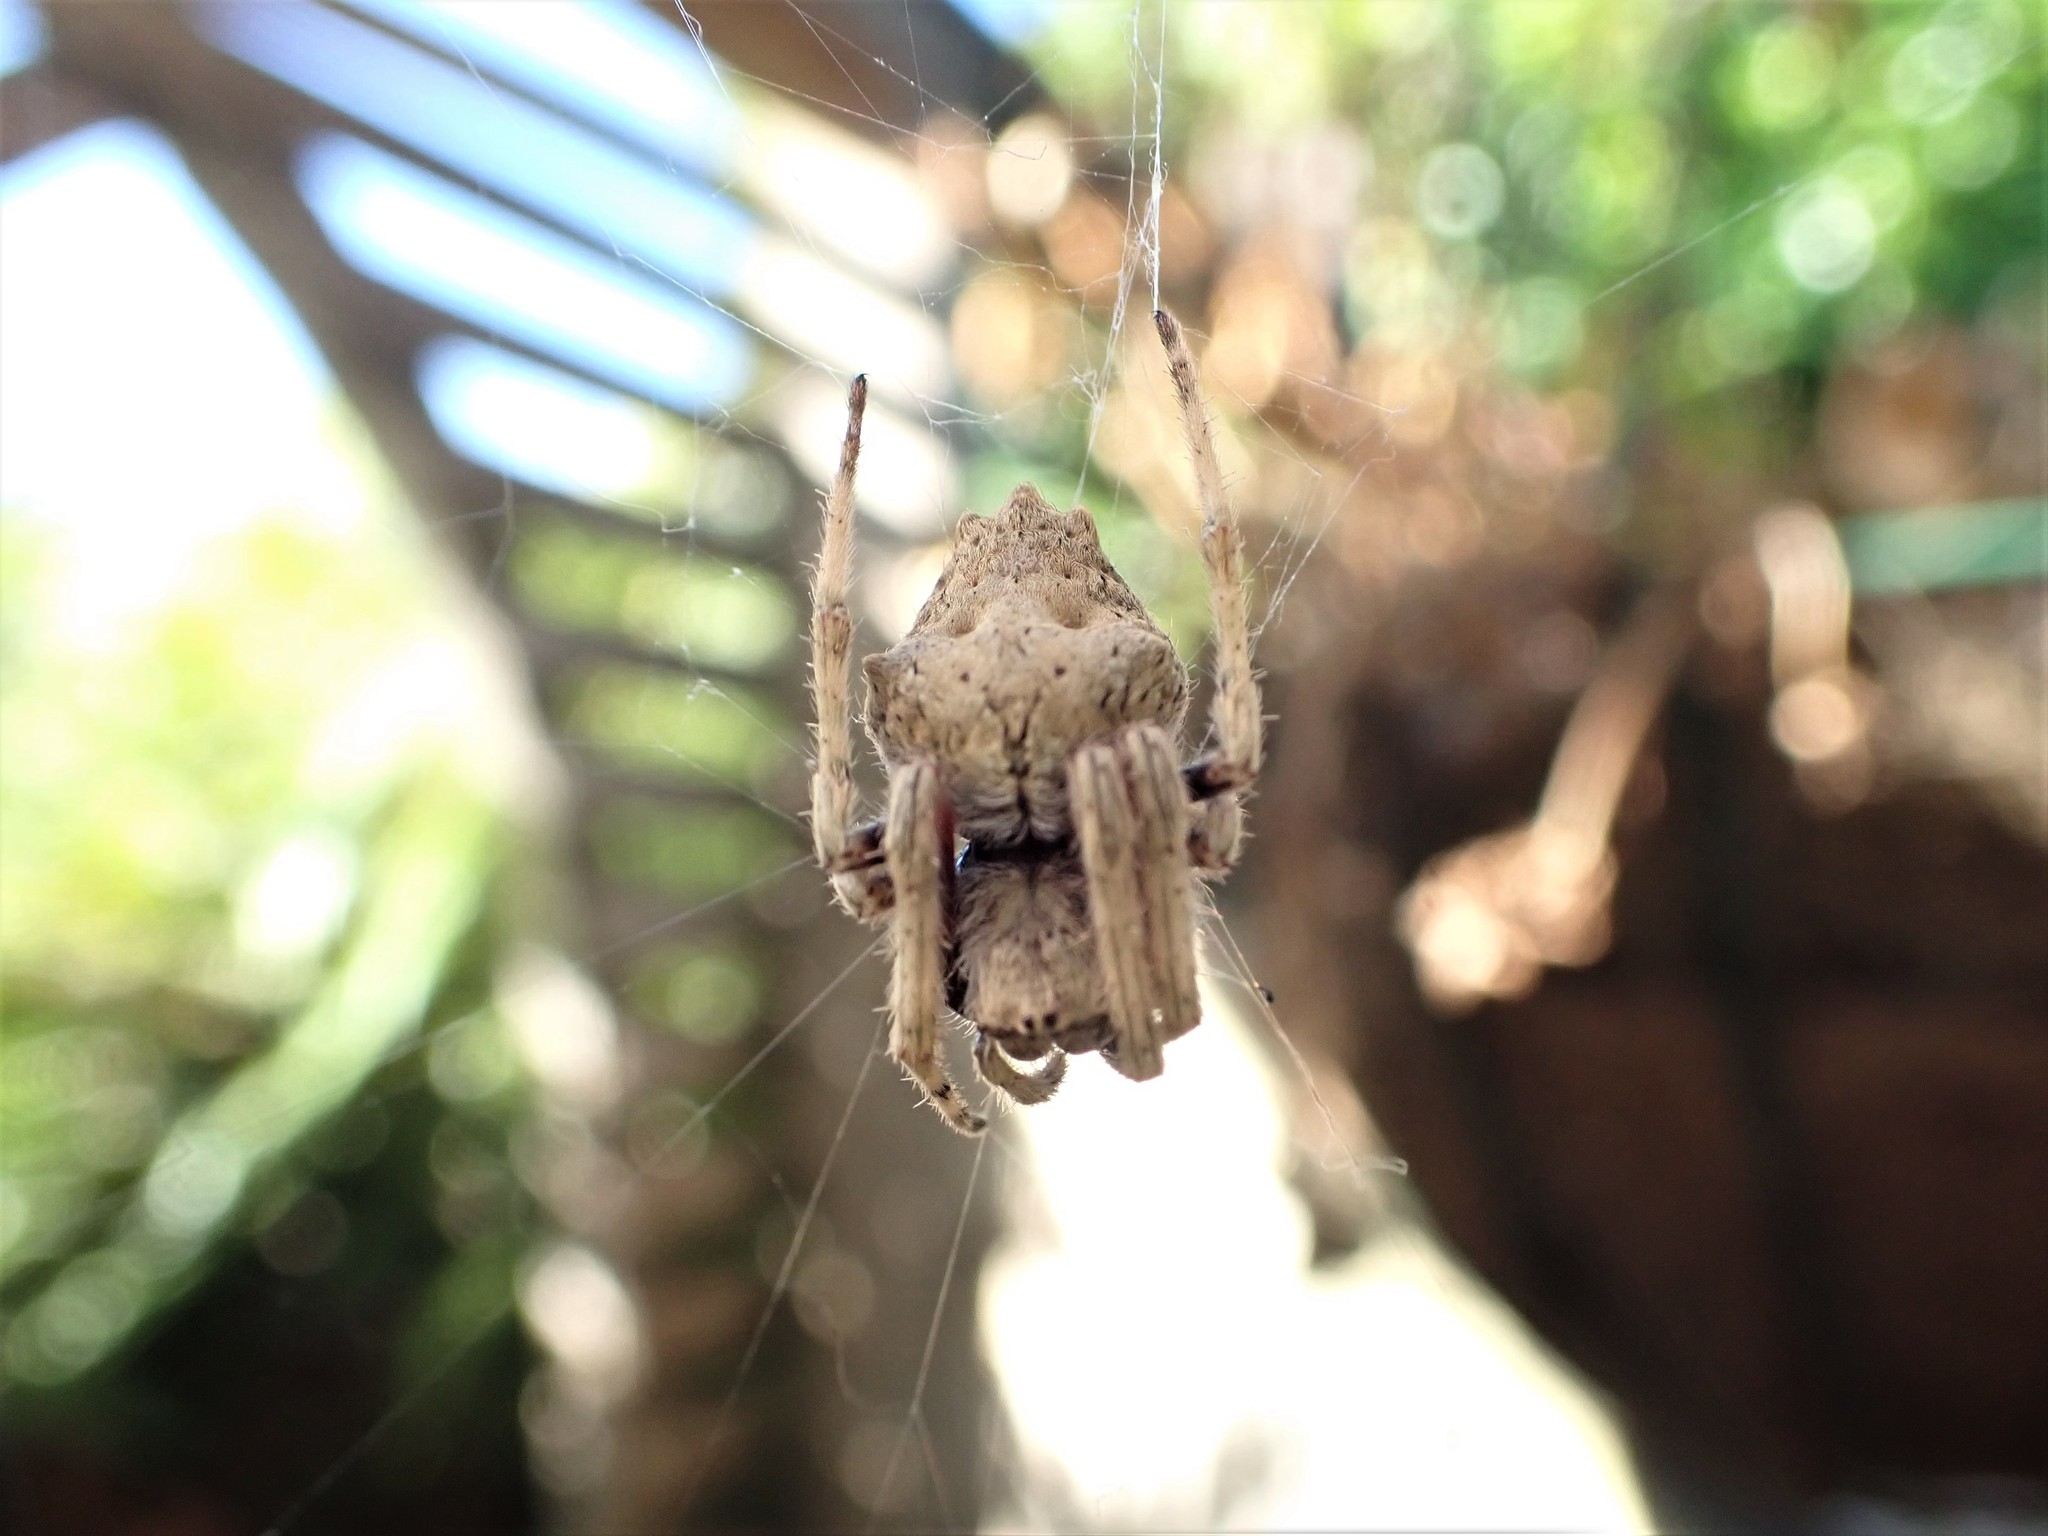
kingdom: Animalia
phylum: Arthropoda
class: Arachnida
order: Araneae
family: Araneidae
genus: Eriophora
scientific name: Eriophora pustulosa
